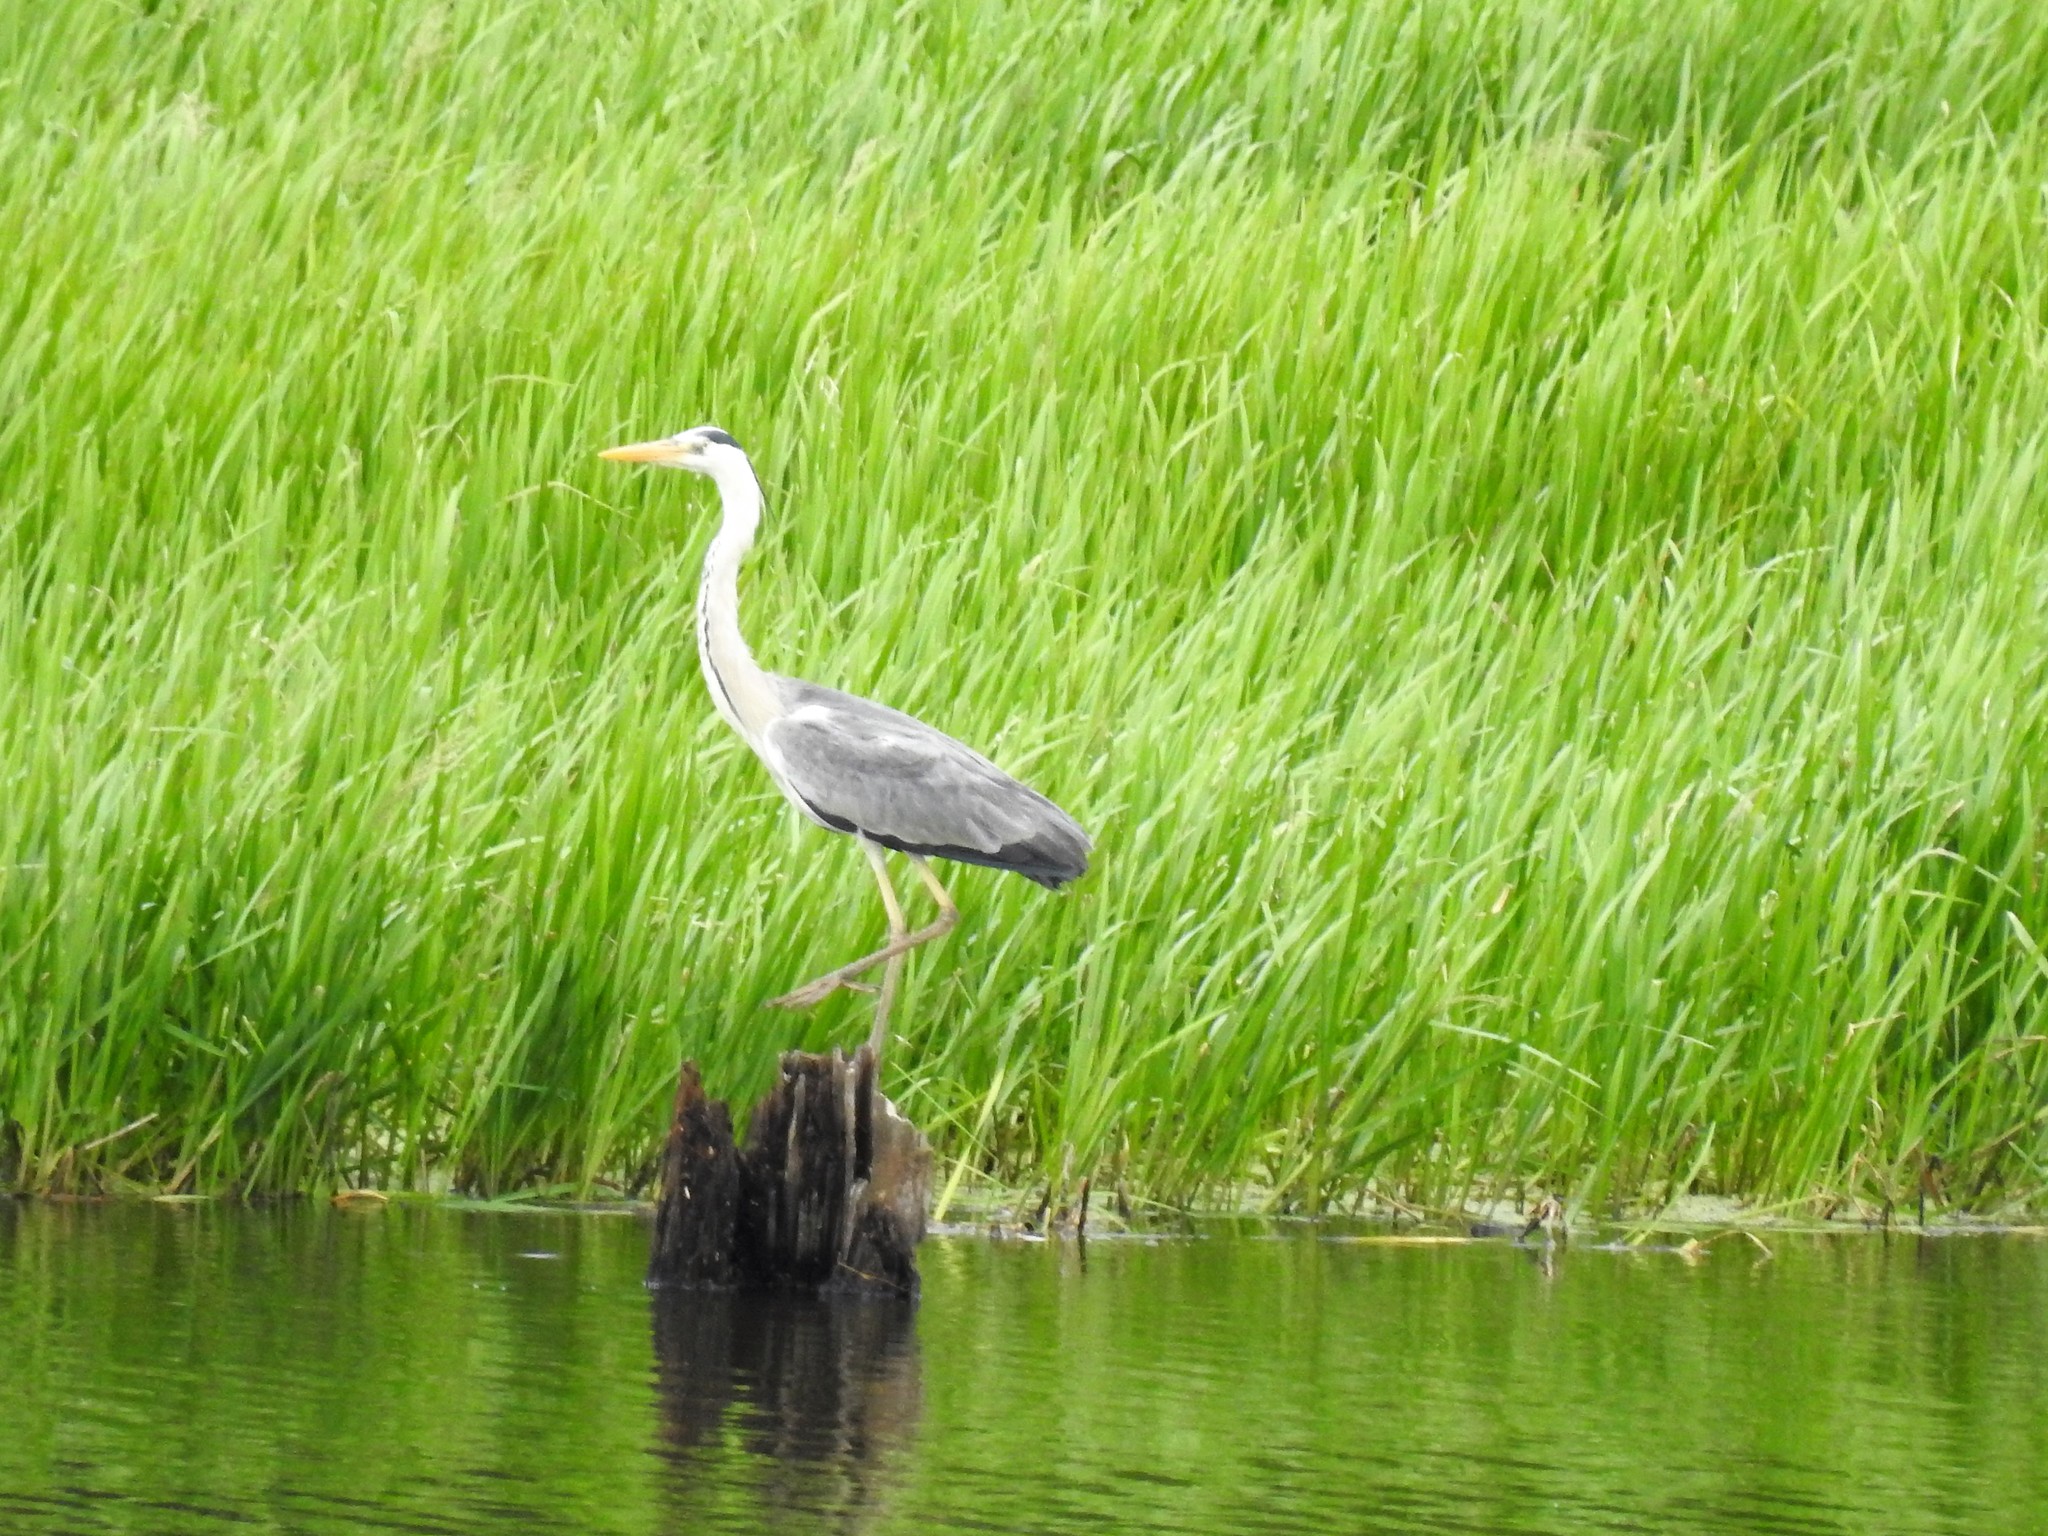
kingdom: Animalia
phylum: Chordata
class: Aves
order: Pelecaniformes
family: Ardeidae
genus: Ardea
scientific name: Ardea cinerea
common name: Grey heron
